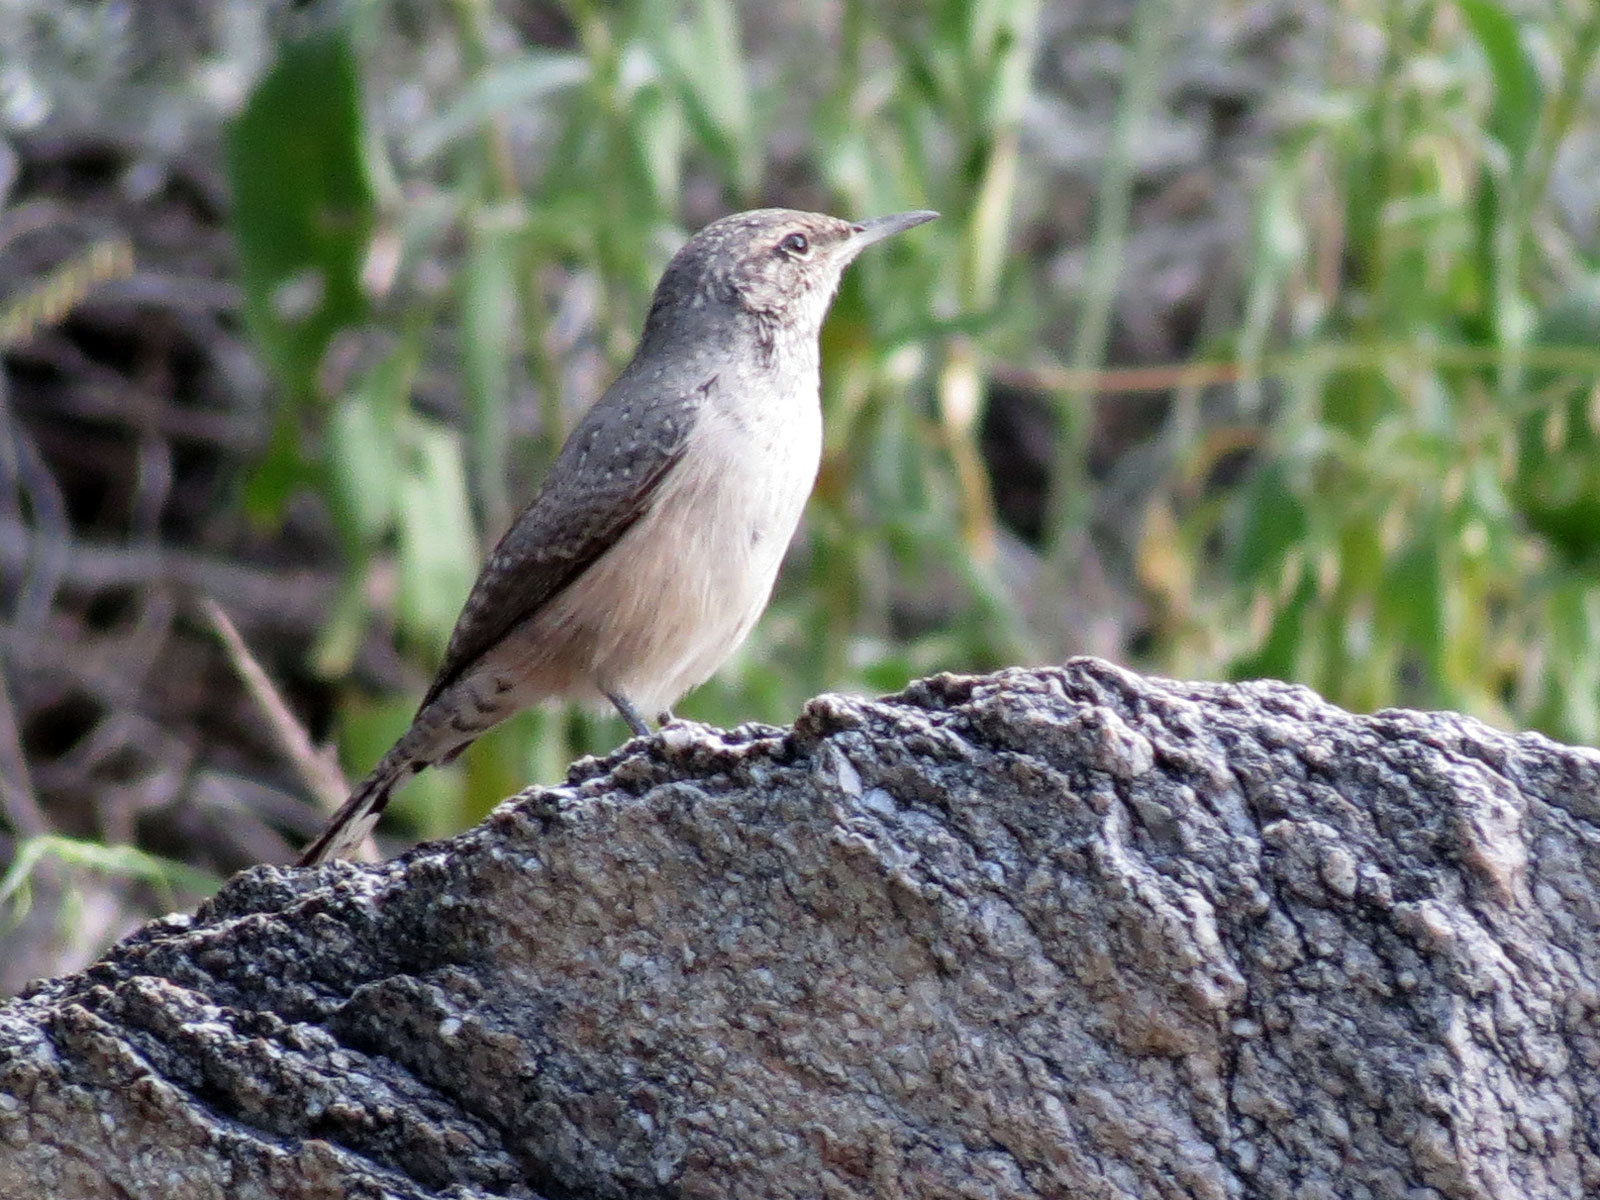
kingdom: Animalia
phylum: Chordata
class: Aves
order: Passeriformes
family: Troglodytidae
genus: Salpinctes
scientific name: Salpinctes obsoletus
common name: Rock wren
